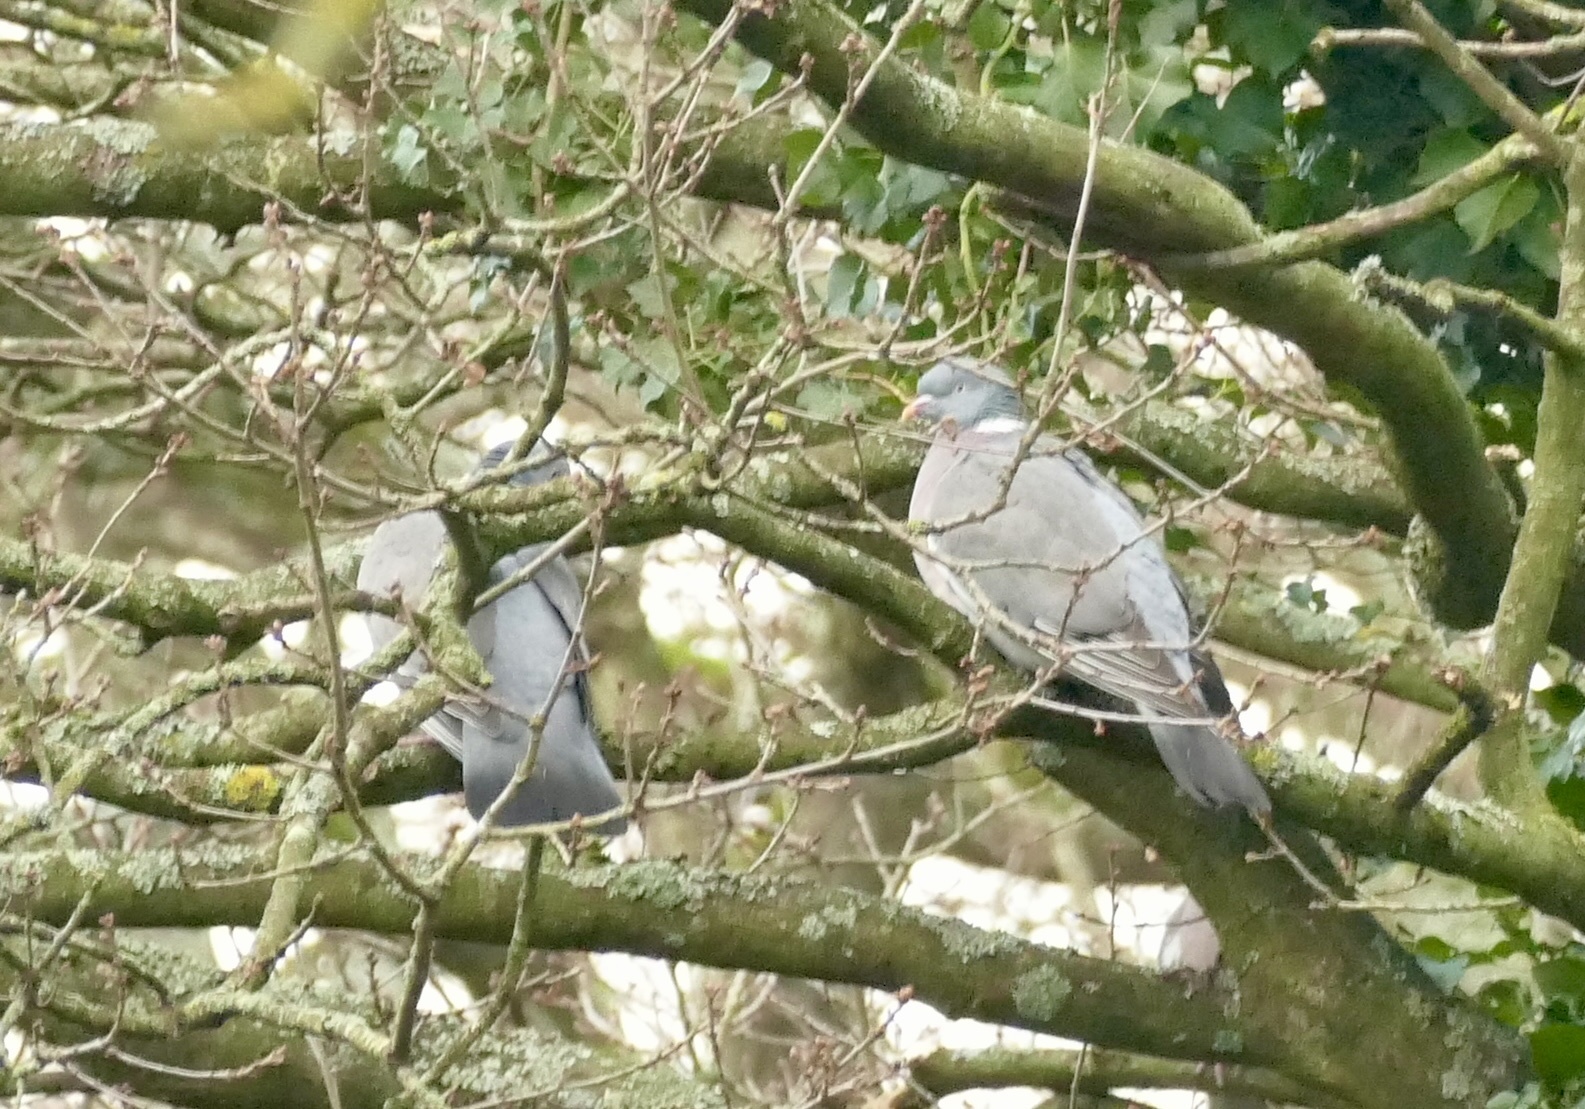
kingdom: Animalia
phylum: Chordata
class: Aves
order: Columbiformes
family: Columbidae
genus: Columba
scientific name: Columba palumbus
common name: Common wood pigeon
